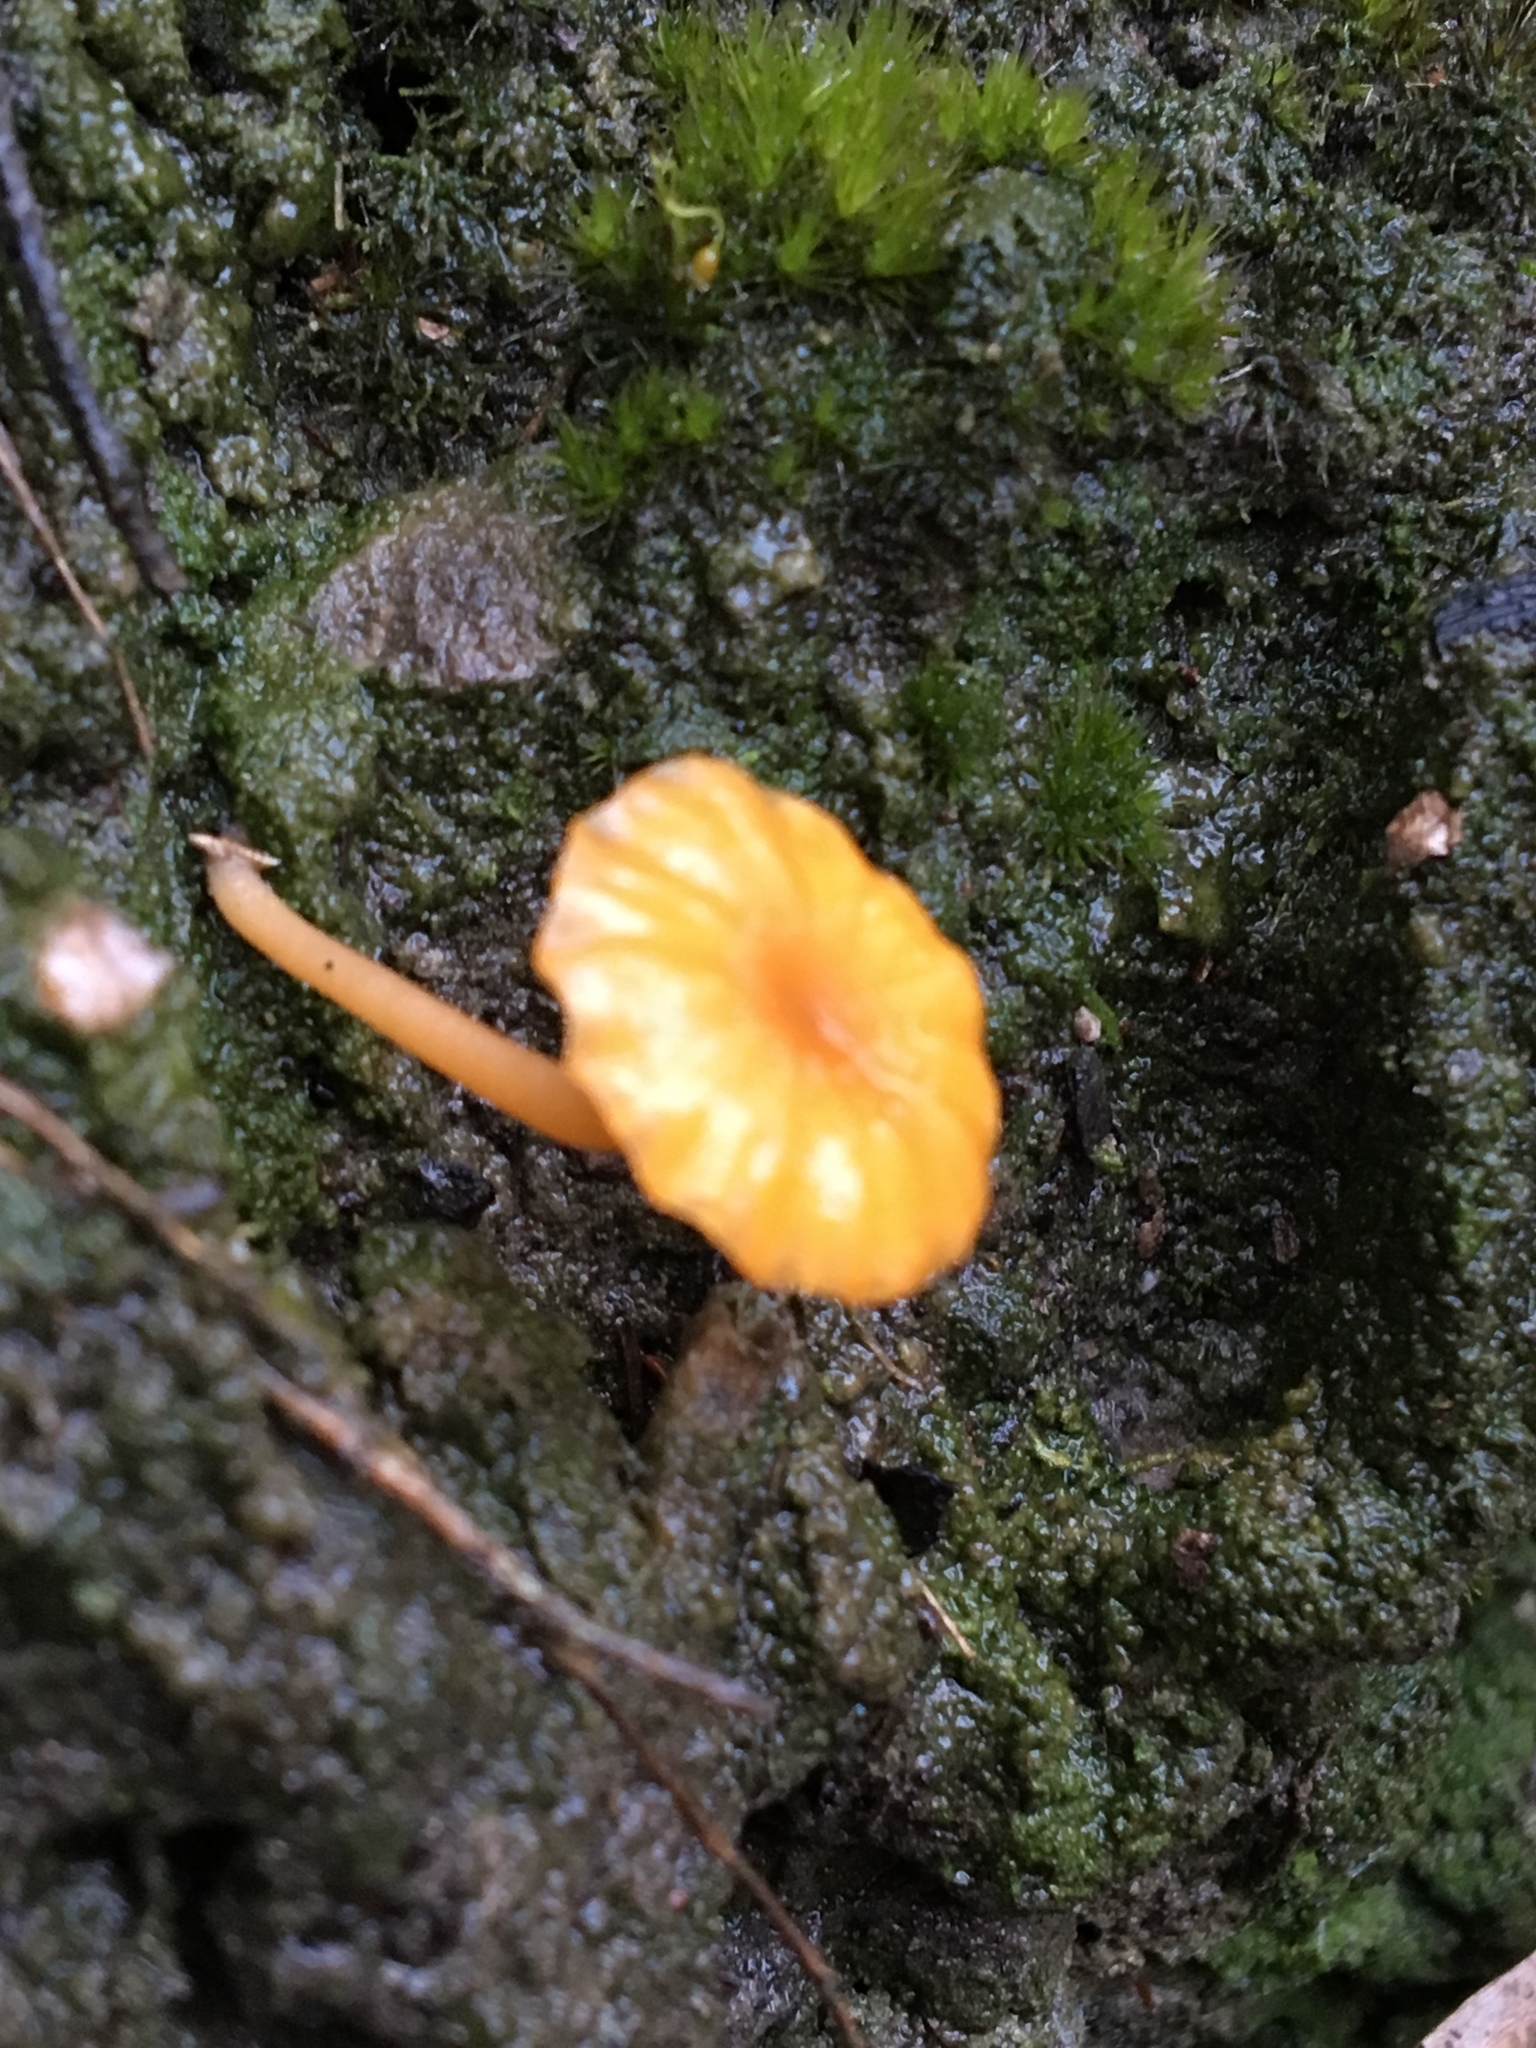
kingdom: Fungi
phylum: Basidiomycota
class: Agaricomycetes
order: Agaricales
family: Hygrophoraceae
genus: Lichenomphalia
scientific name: Lichenomphalia chromacea
